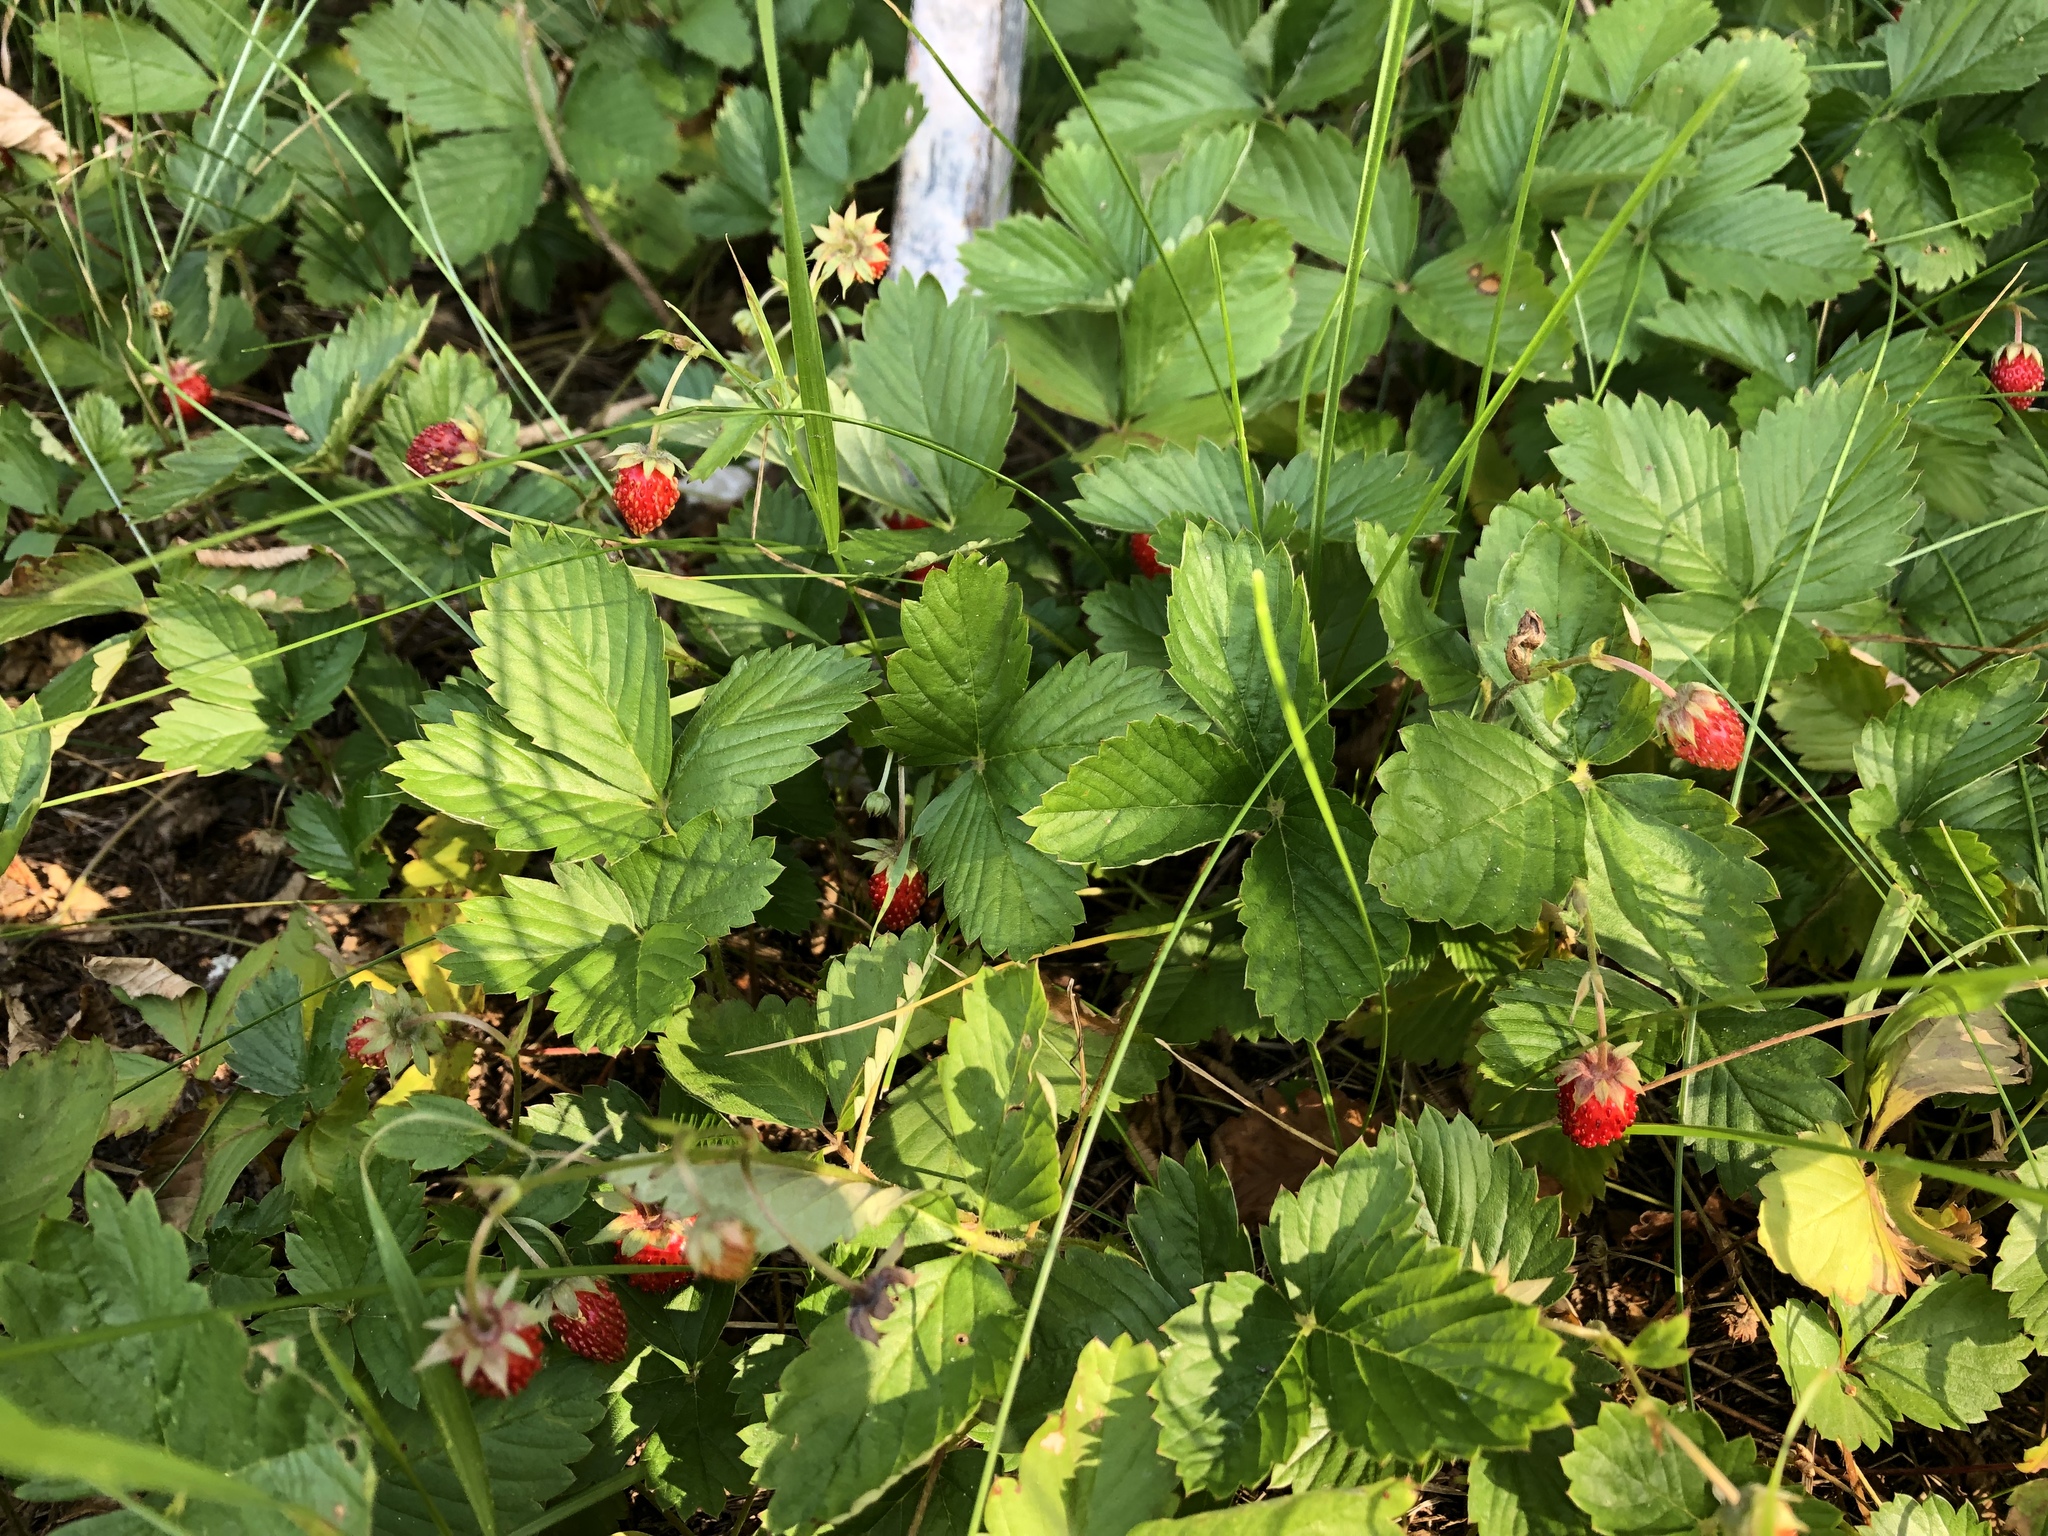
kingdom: Plantae
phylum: Tracheophyta
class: Magnoliopsida
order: Rosales
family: Rosaceae
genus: Fragaria
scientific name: Fragaria vesca
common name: Wild strawberry
